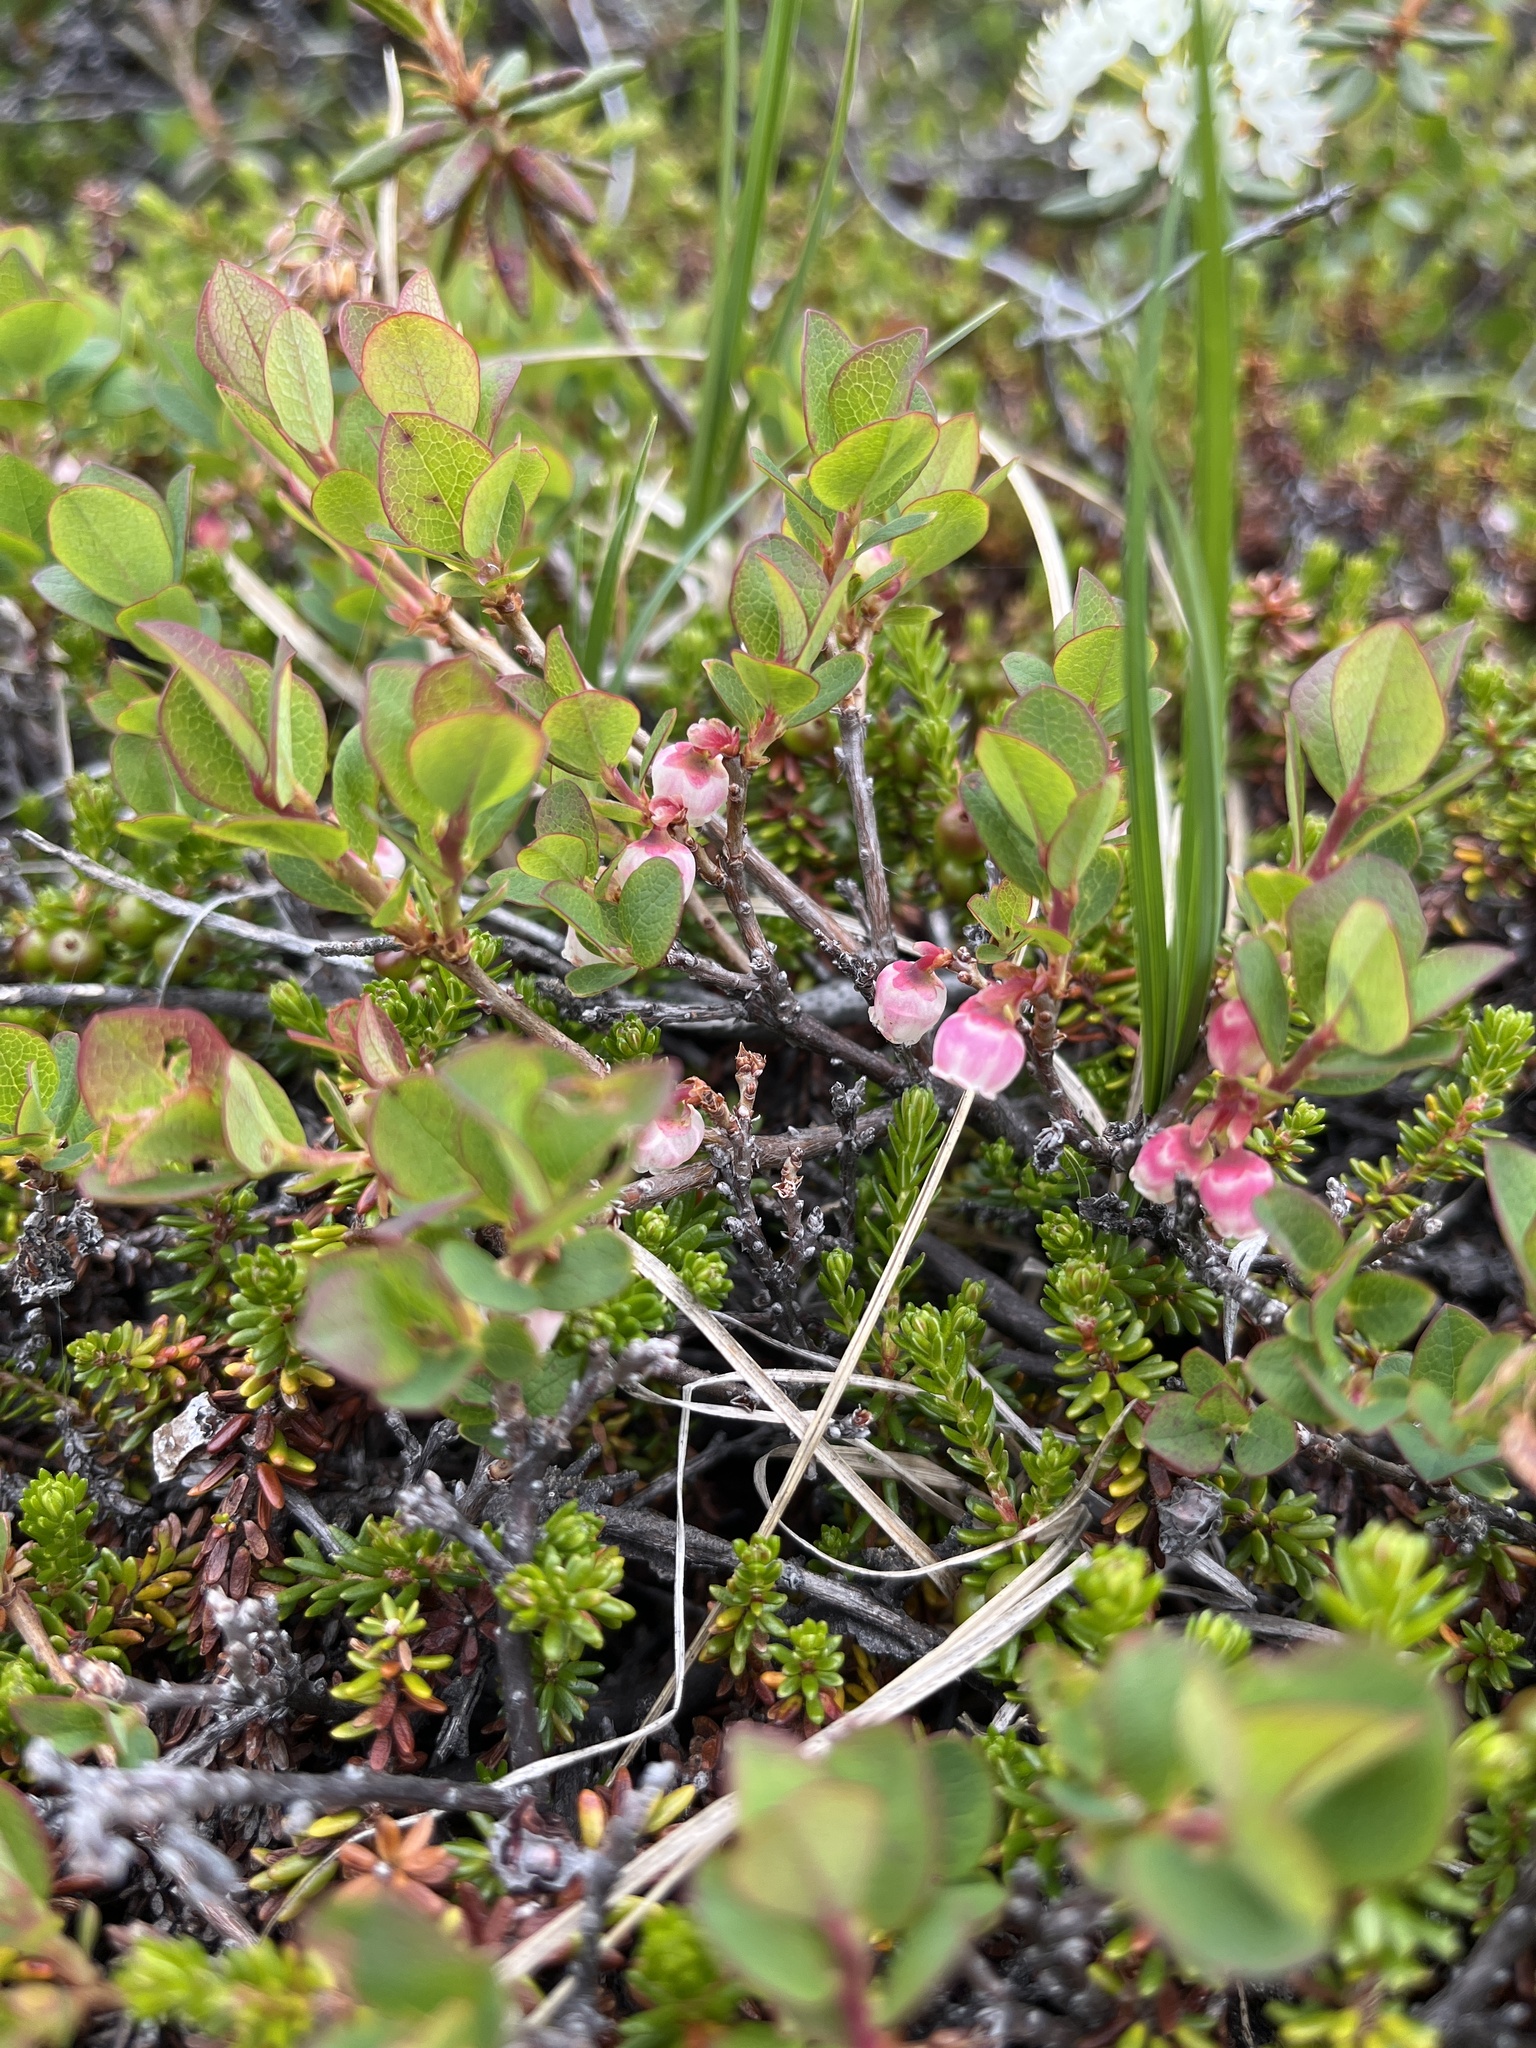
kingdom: Plantae
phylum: Tracheophyta
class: Magnoliopsida
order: Ericales
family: Ericaceae
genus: Vaccinium
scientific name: Vaccinium uliginosum
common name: Bog bilberry
